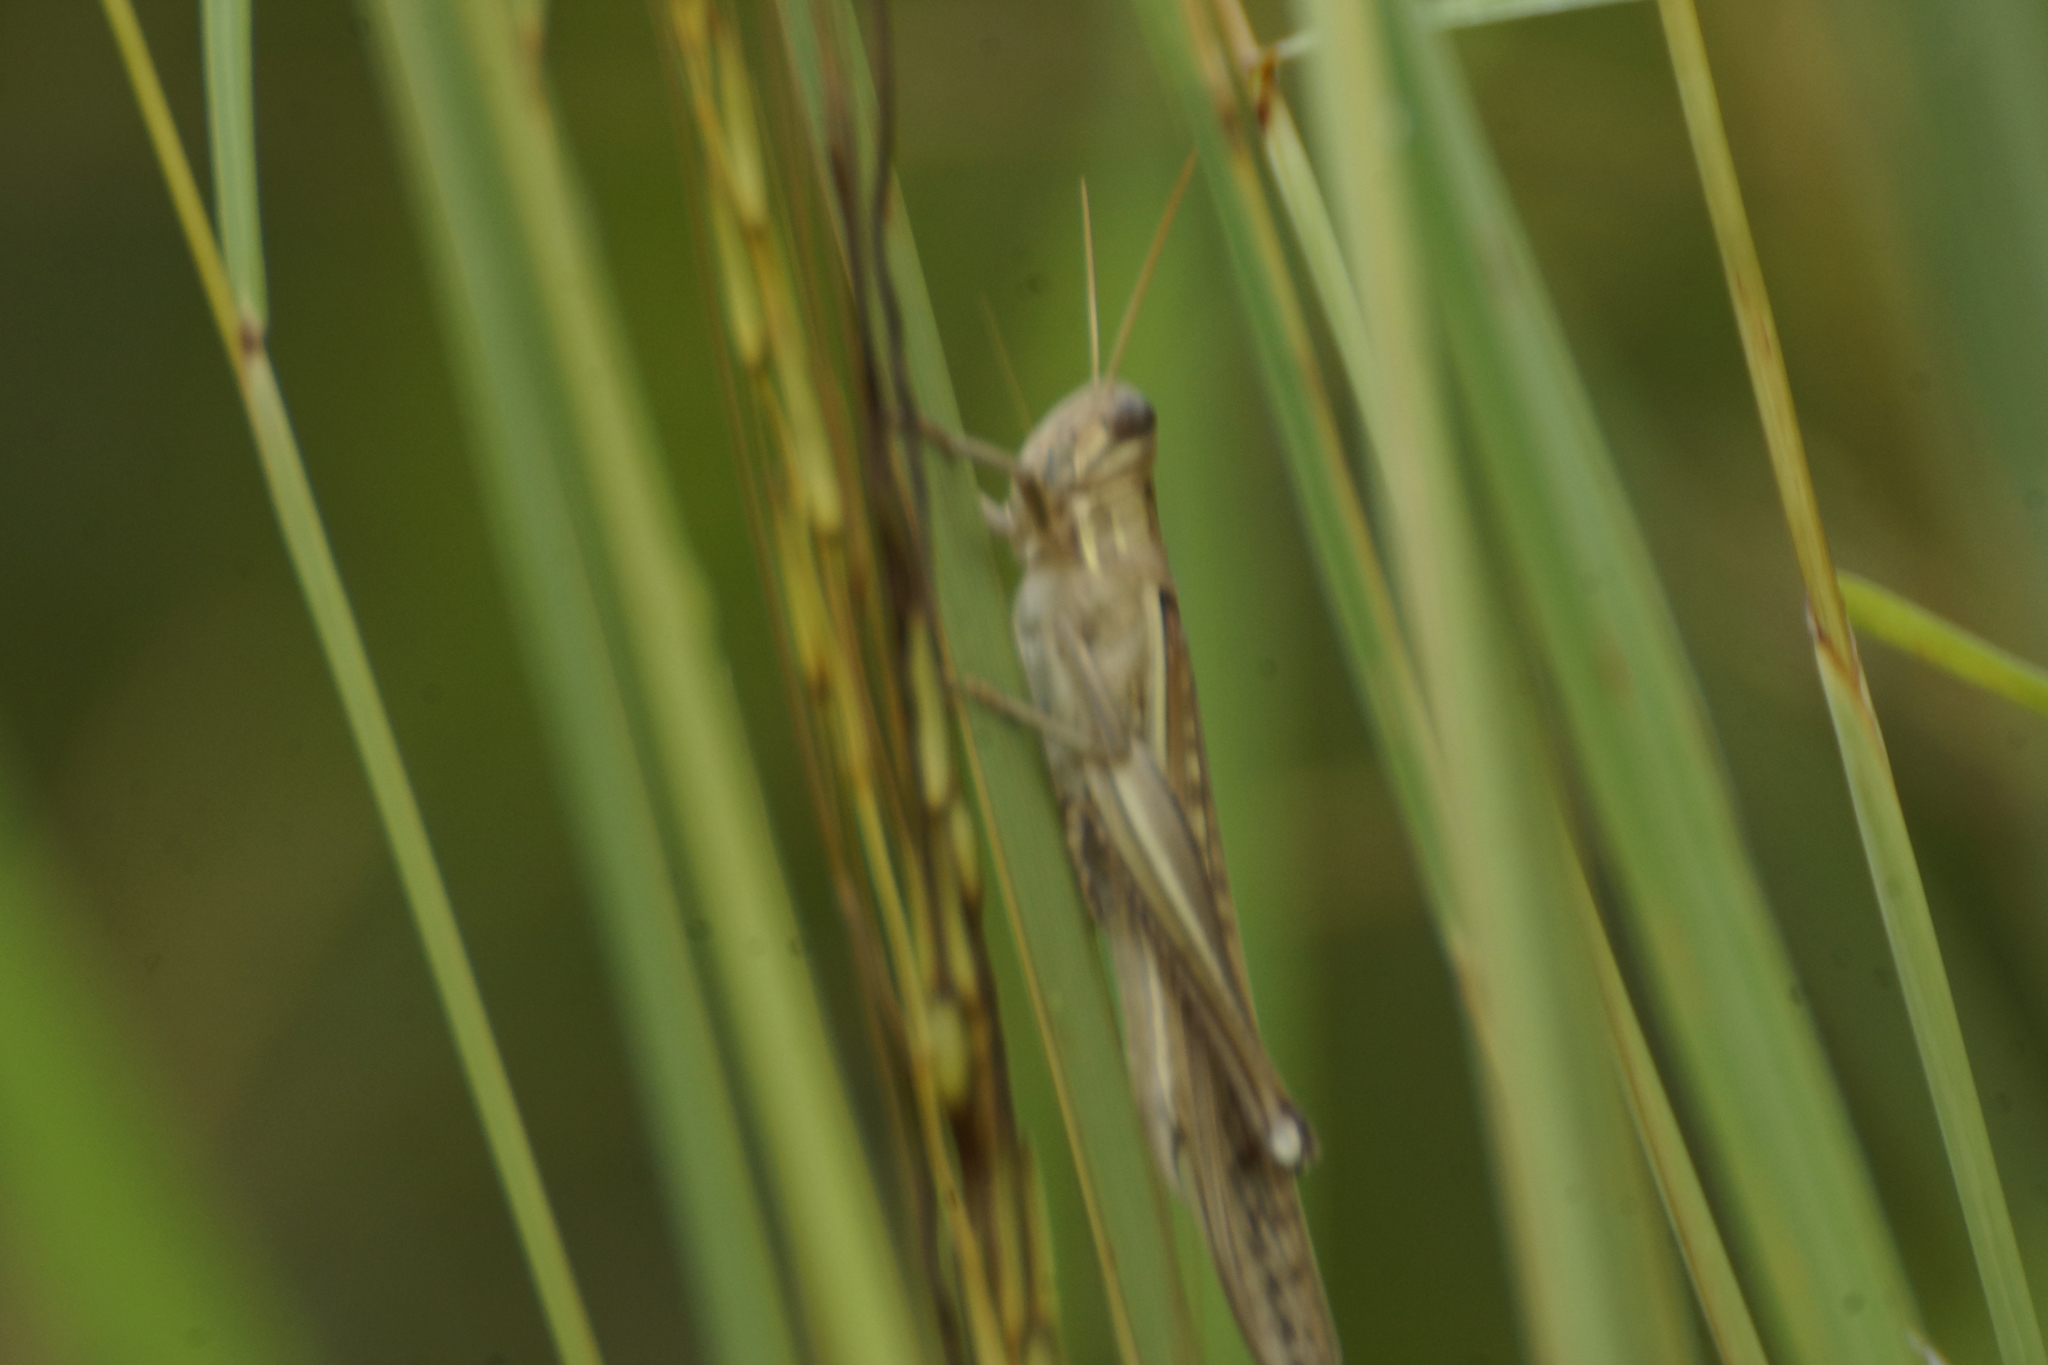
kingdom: Animalia
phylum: Arthropoda
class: Insecta
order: Orthoptera
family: Acrididae
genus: Austracris
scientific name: Austracris guttulosa
